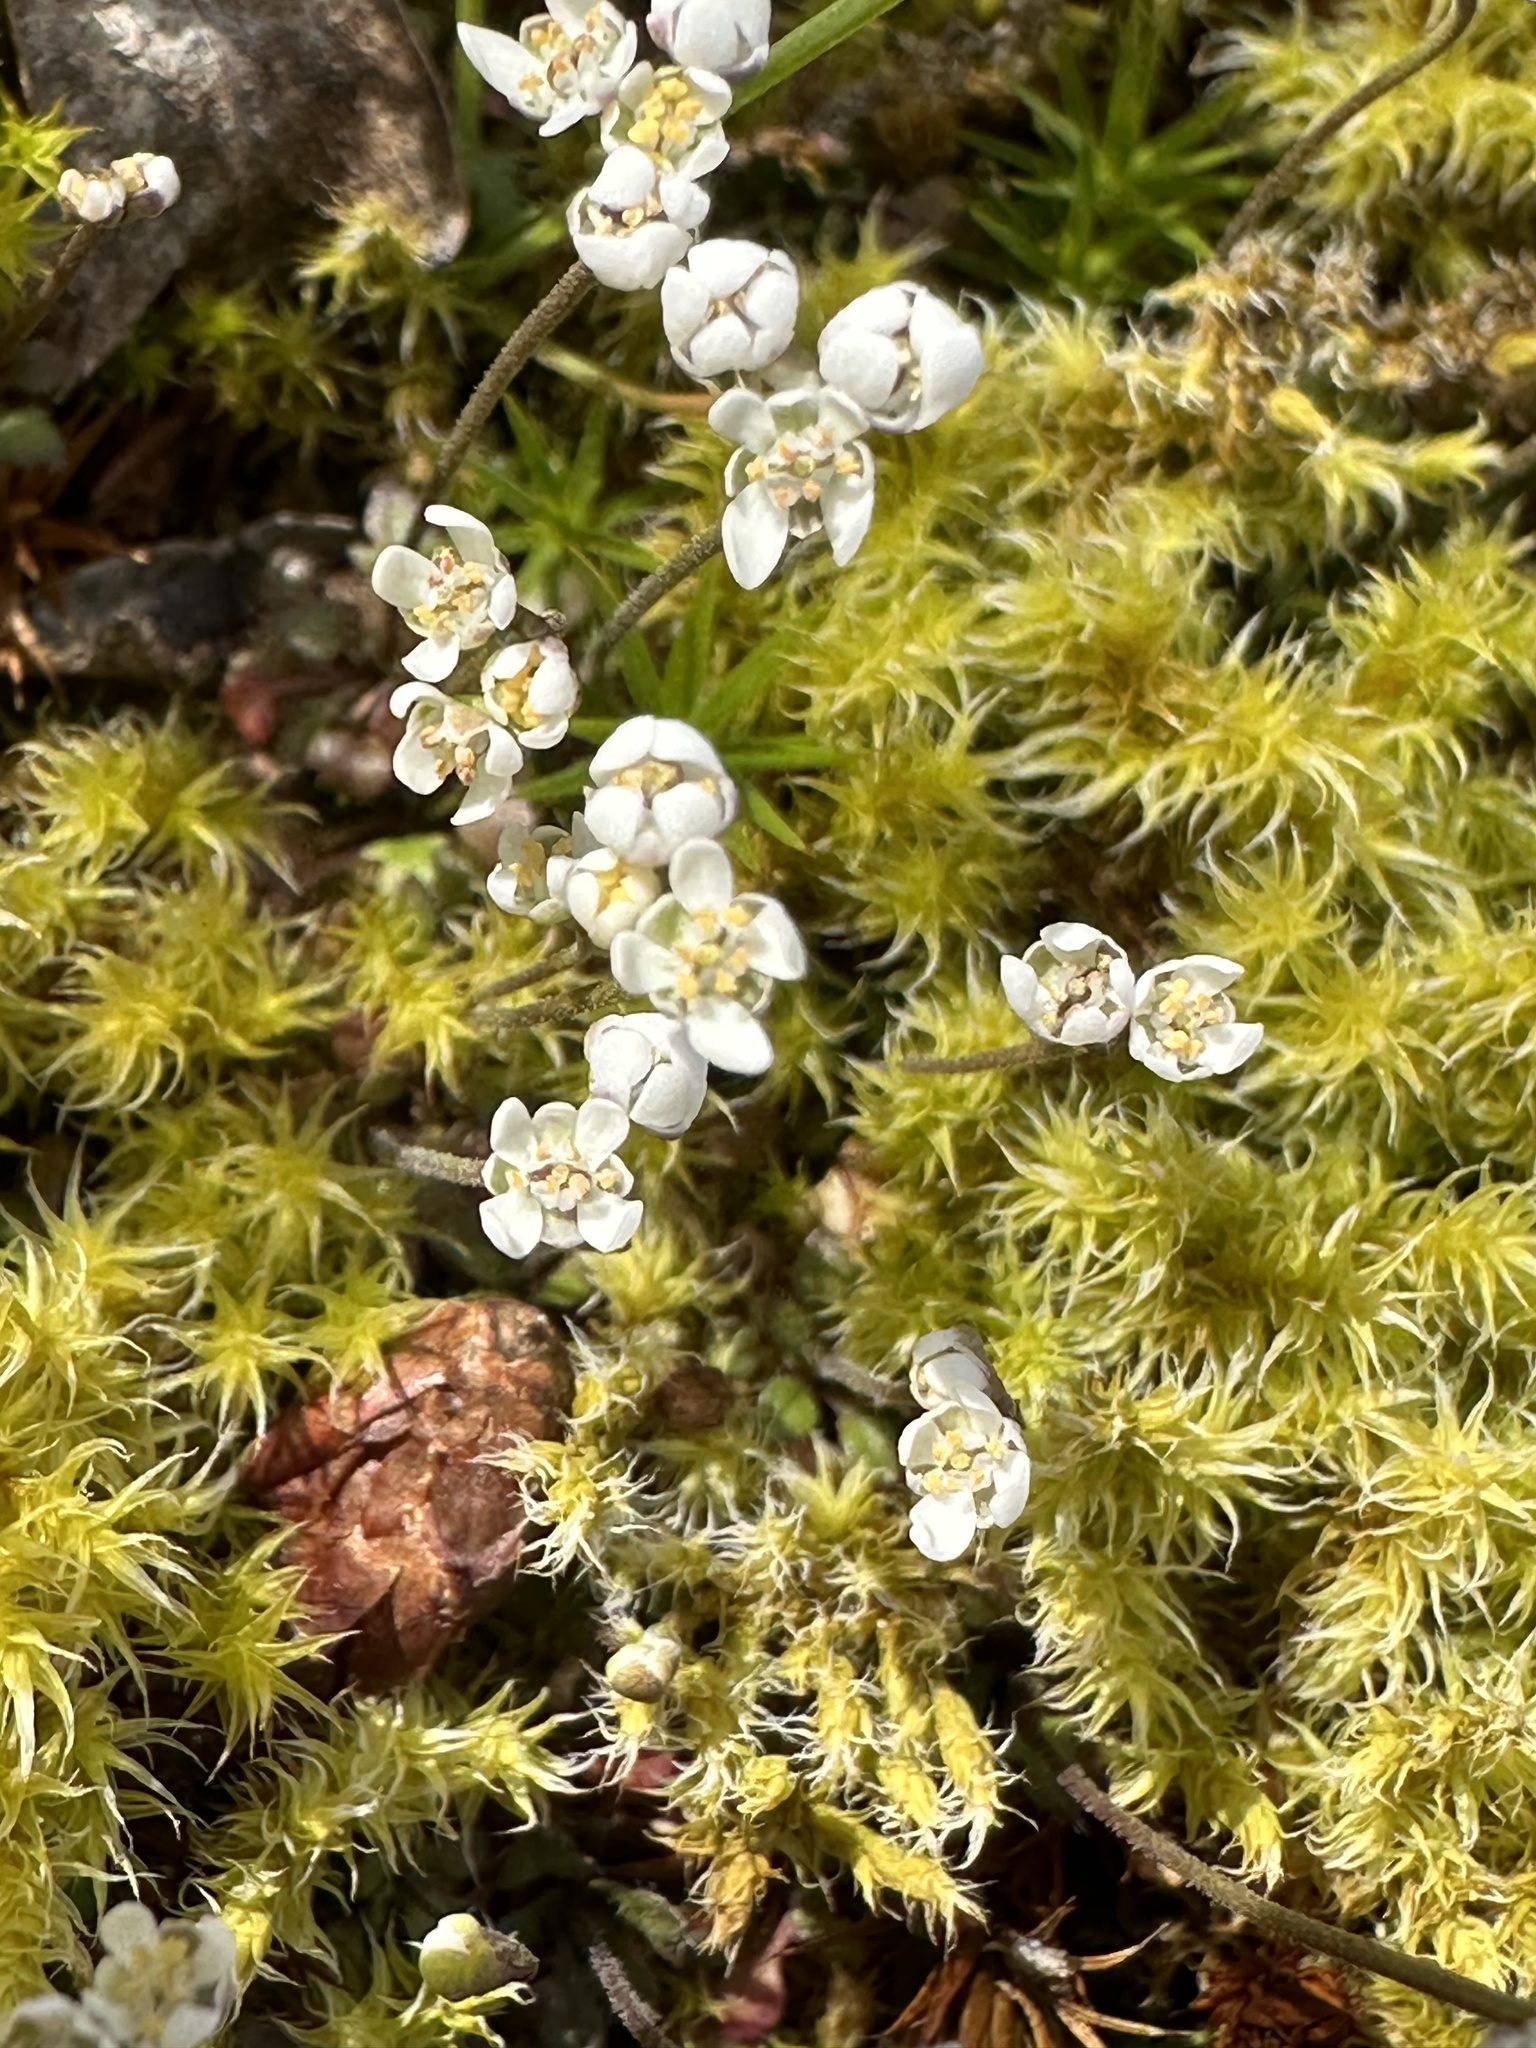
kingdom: Plantae
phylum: Tracheophyta
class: Magnoliopsida
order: Brassicales
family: Brassicaceae
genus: Teesdalia
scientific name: Teesdalia nudicaulis
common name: Shepherd's cress
